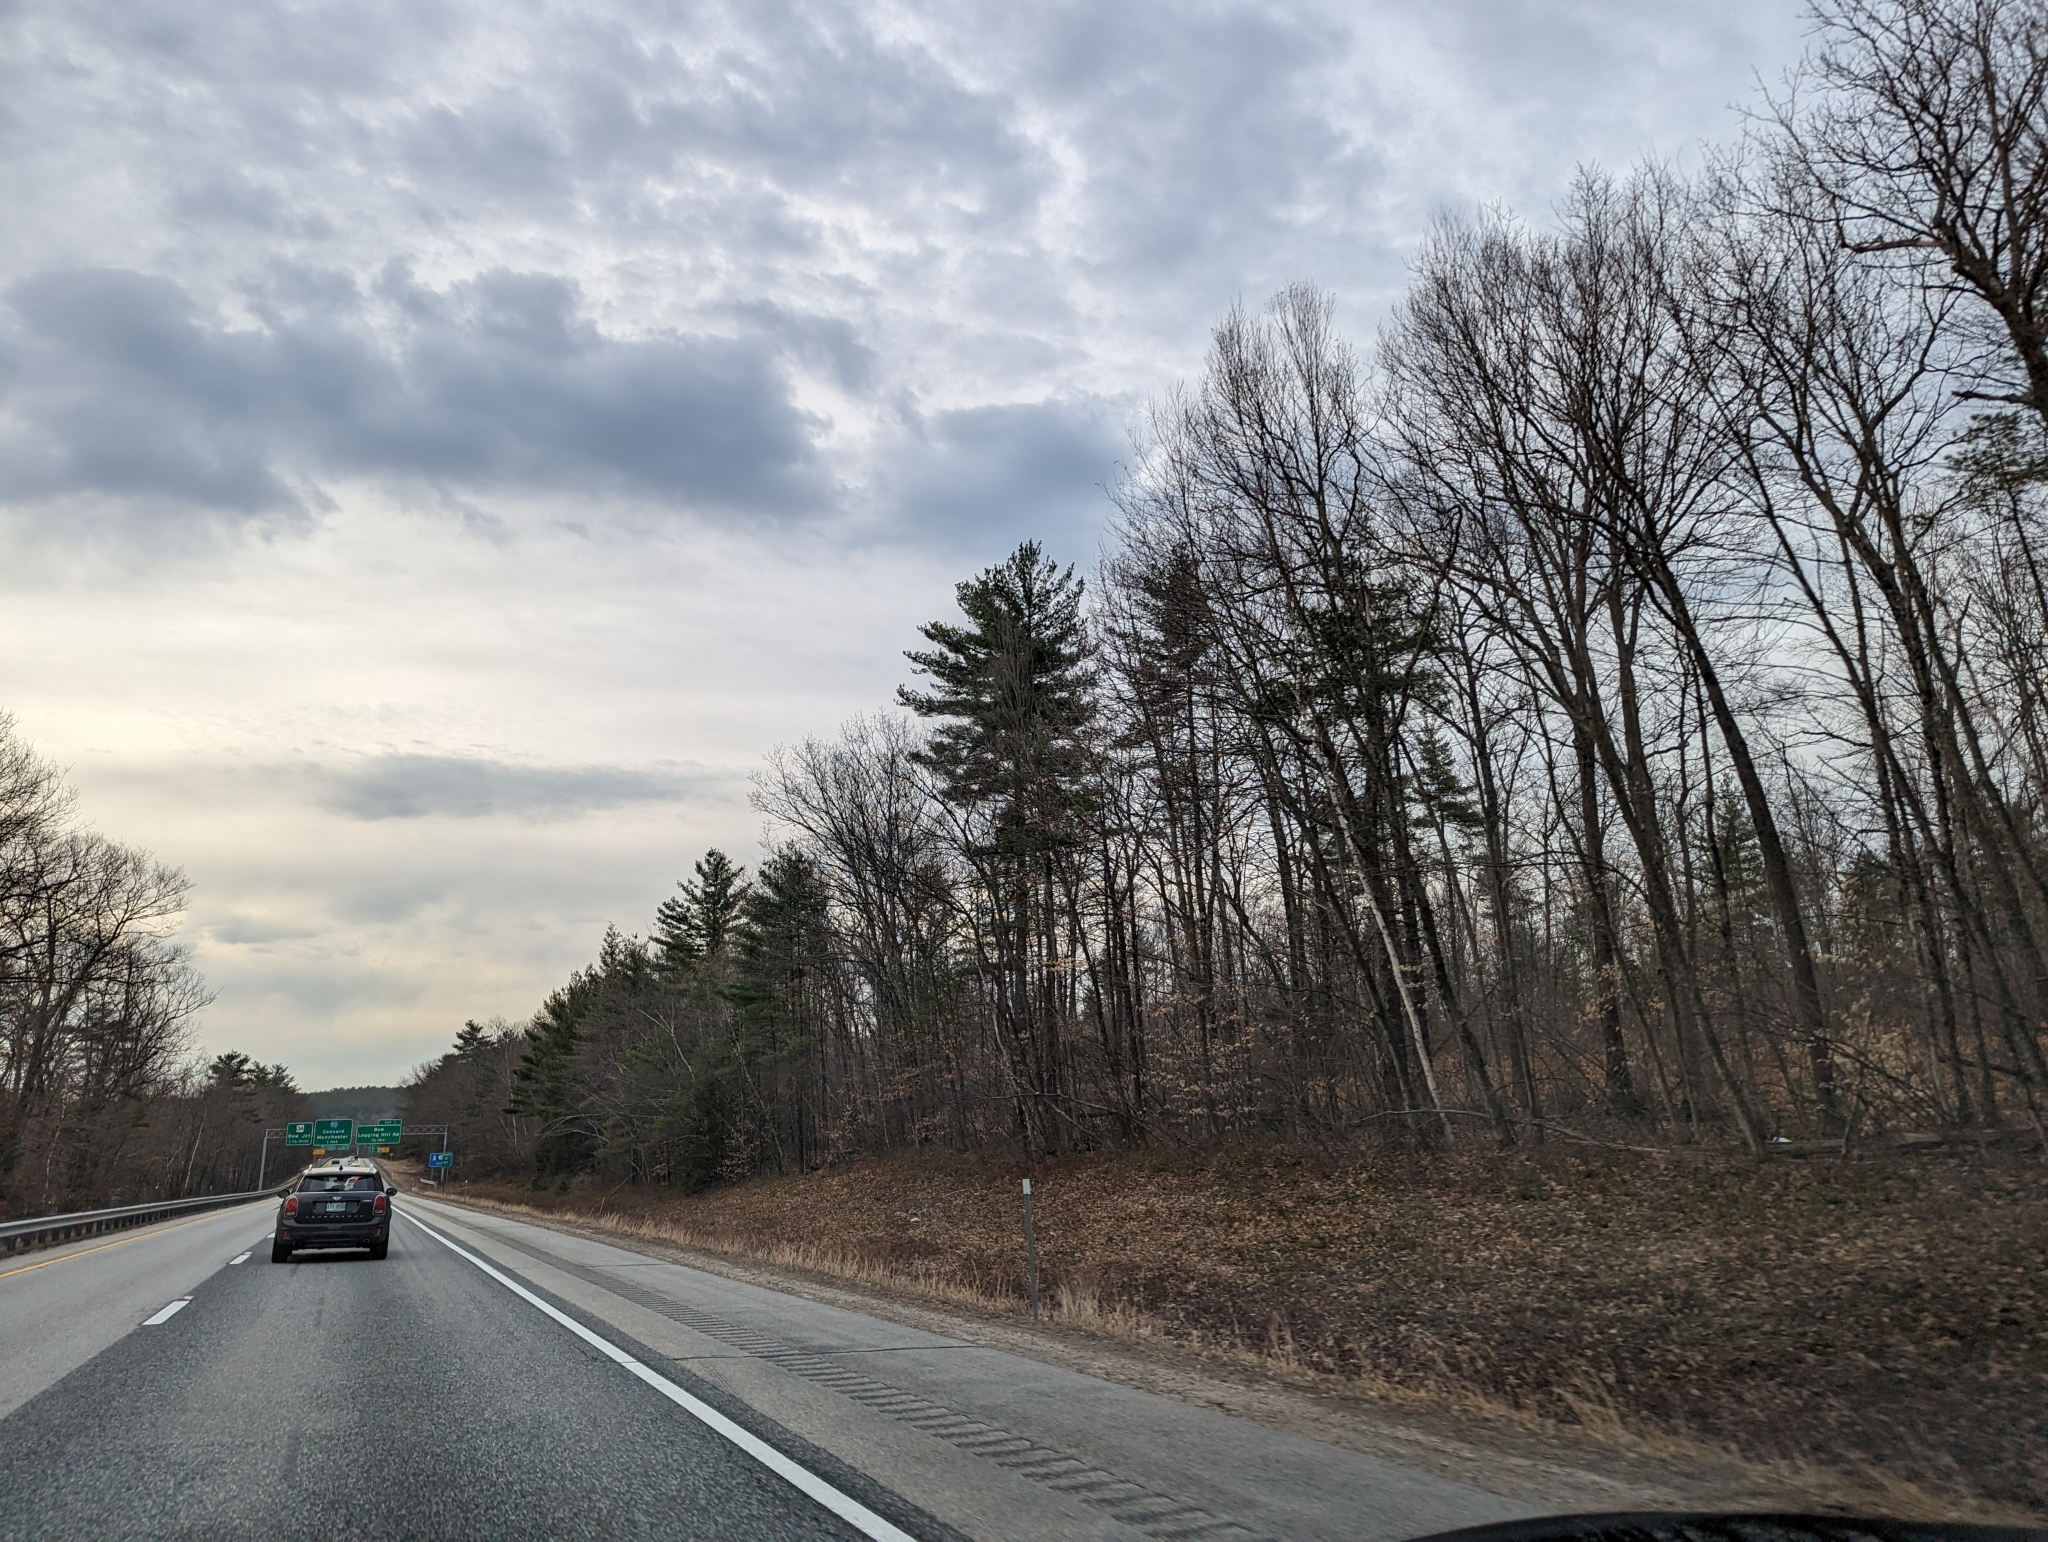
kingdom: Plantae
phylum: Tracheophyta
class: Pinopsida
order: Pinales
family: Pinaceae
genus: Pinus
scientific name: Pinus strobus
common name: Weymouth pine
